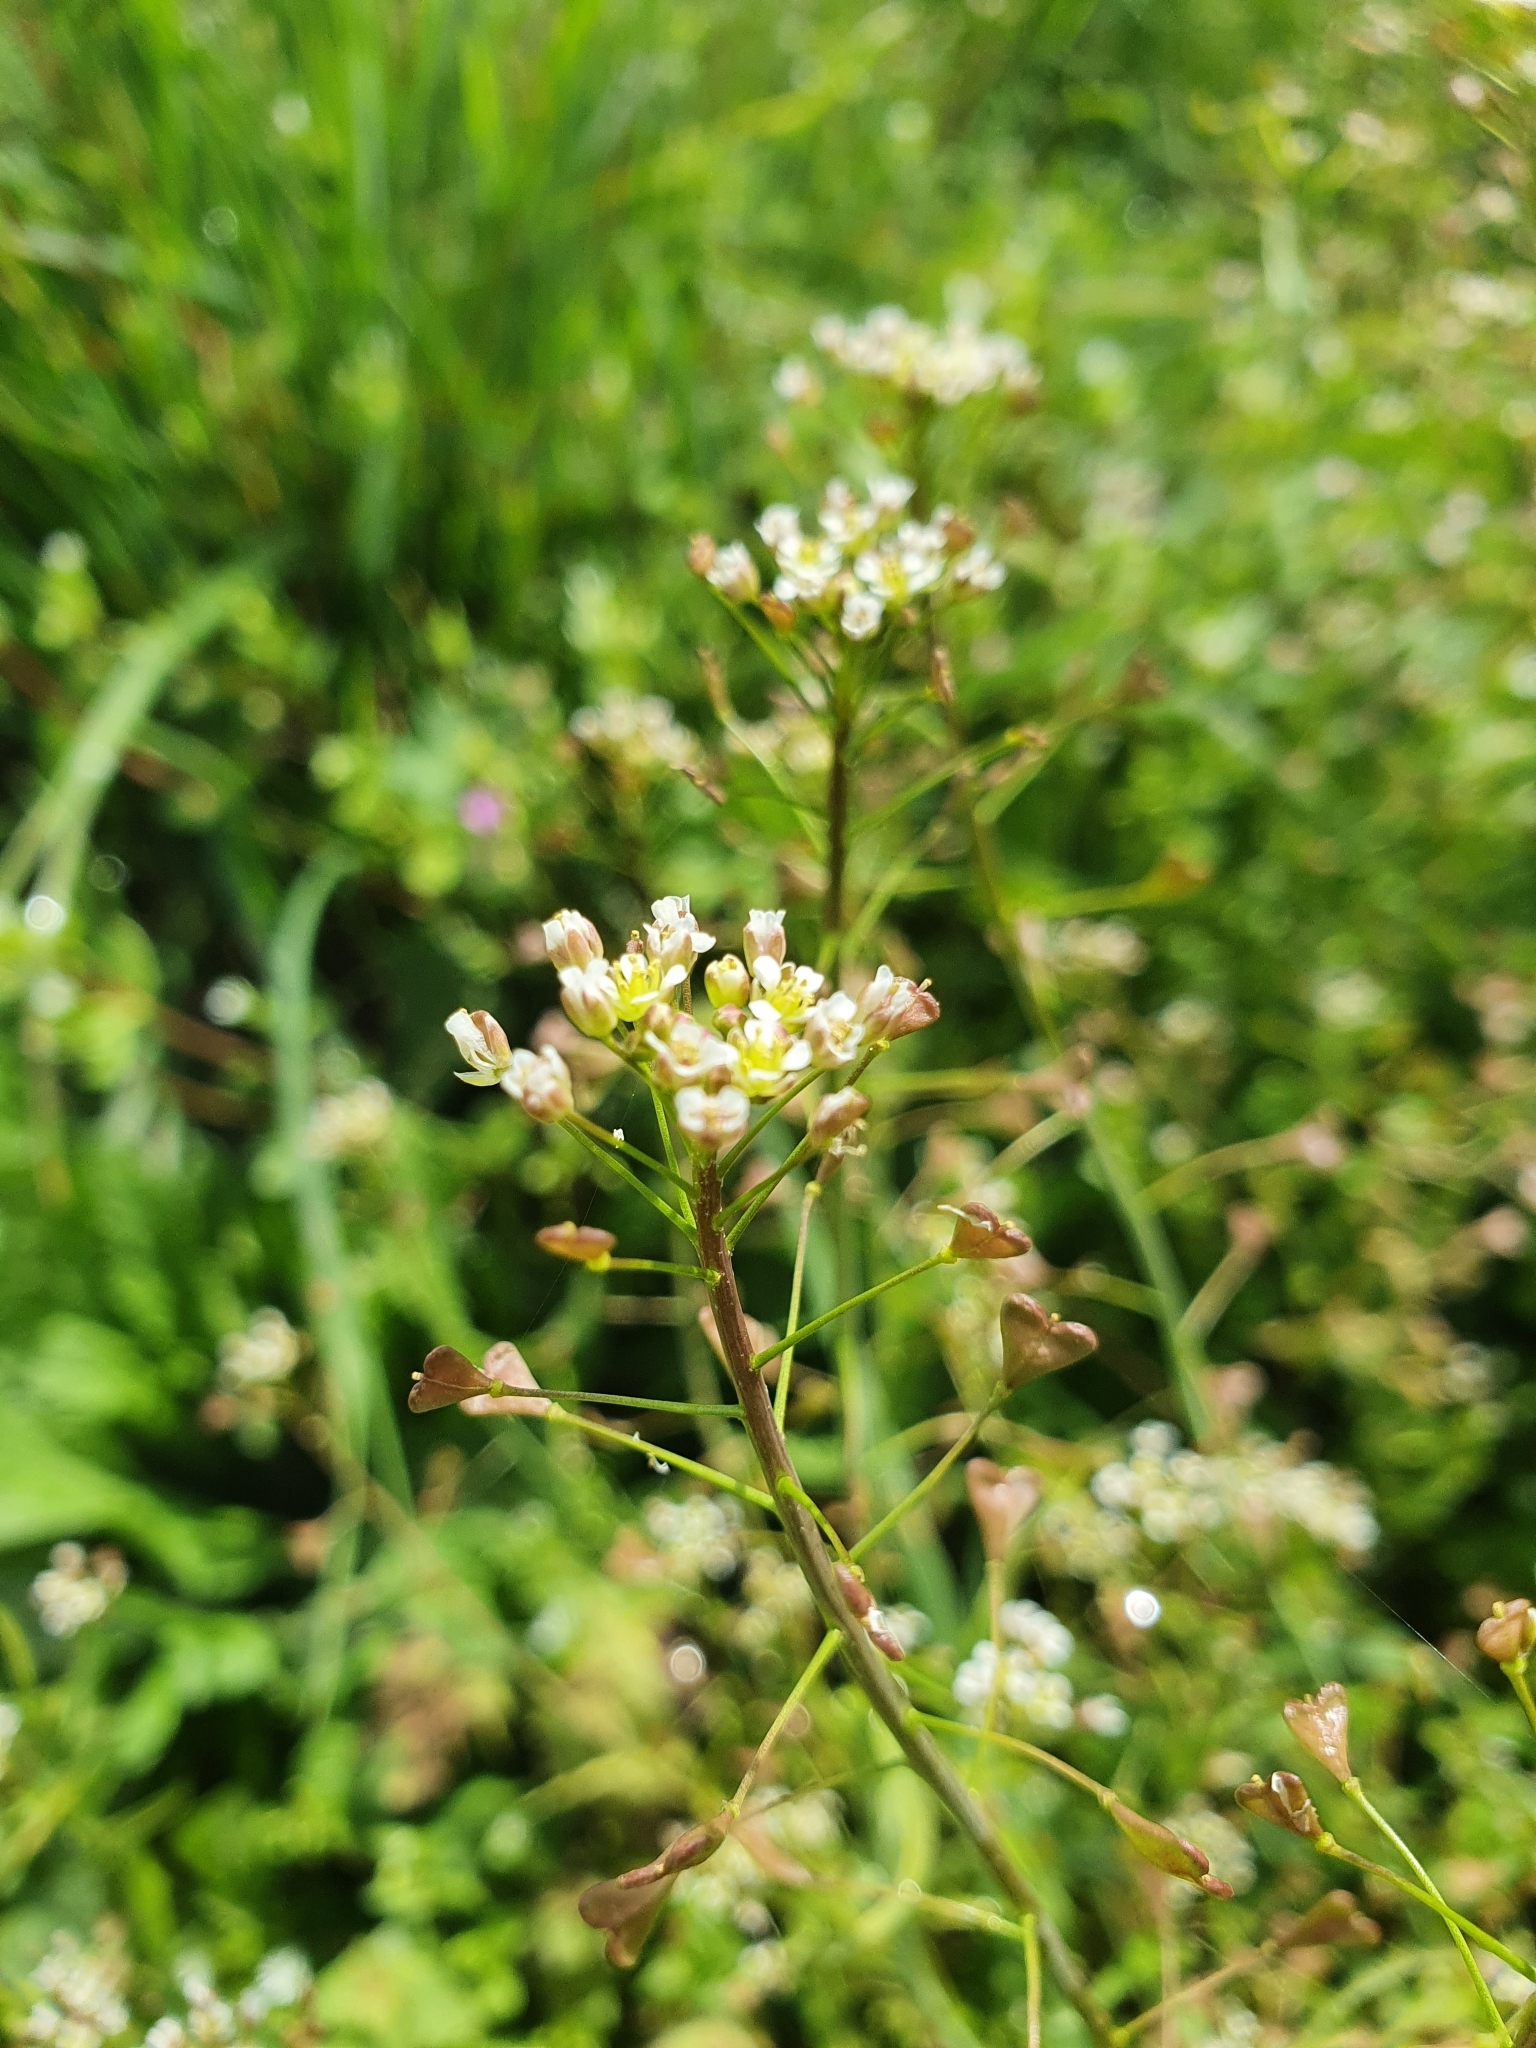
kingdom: Plantae
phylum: Tracheophyta
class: Magnoliopsida
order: Brassicales
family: Brassicaceae
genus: Capsella
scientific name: Capsella bursa-pastoris
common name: Shepherd's purse
